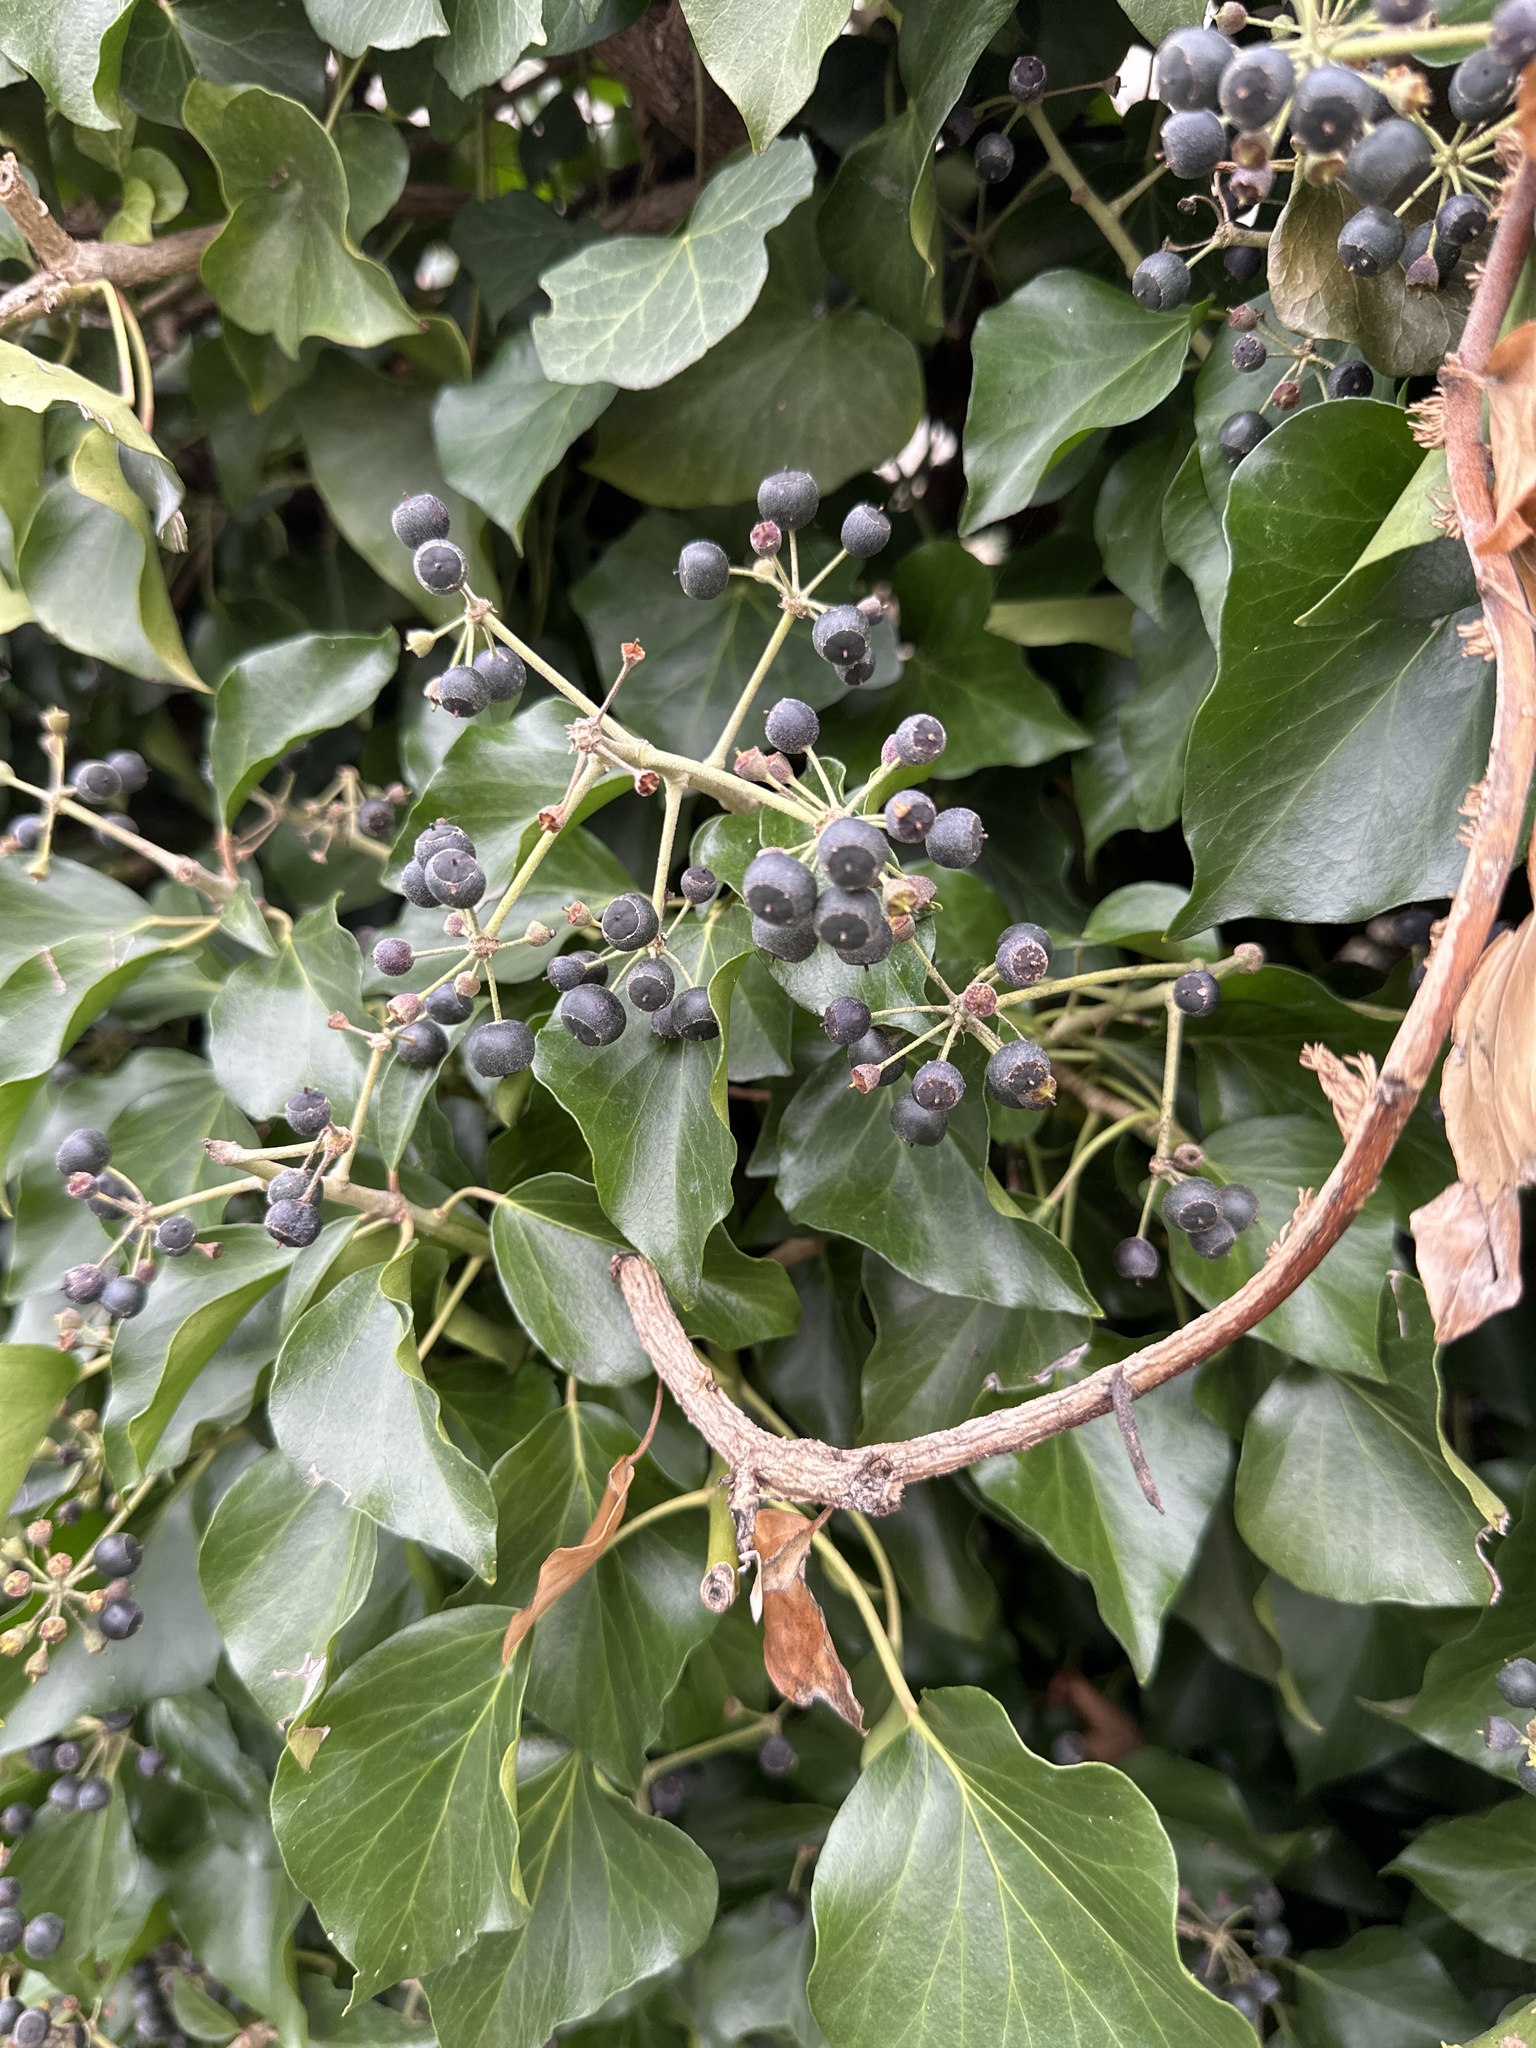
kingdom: Plantae
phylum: Tracheophyta
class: Magnoliopsida
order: Apiales
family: Araliaceae
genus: Hedera
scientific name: Hedera helix
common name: Ivy
